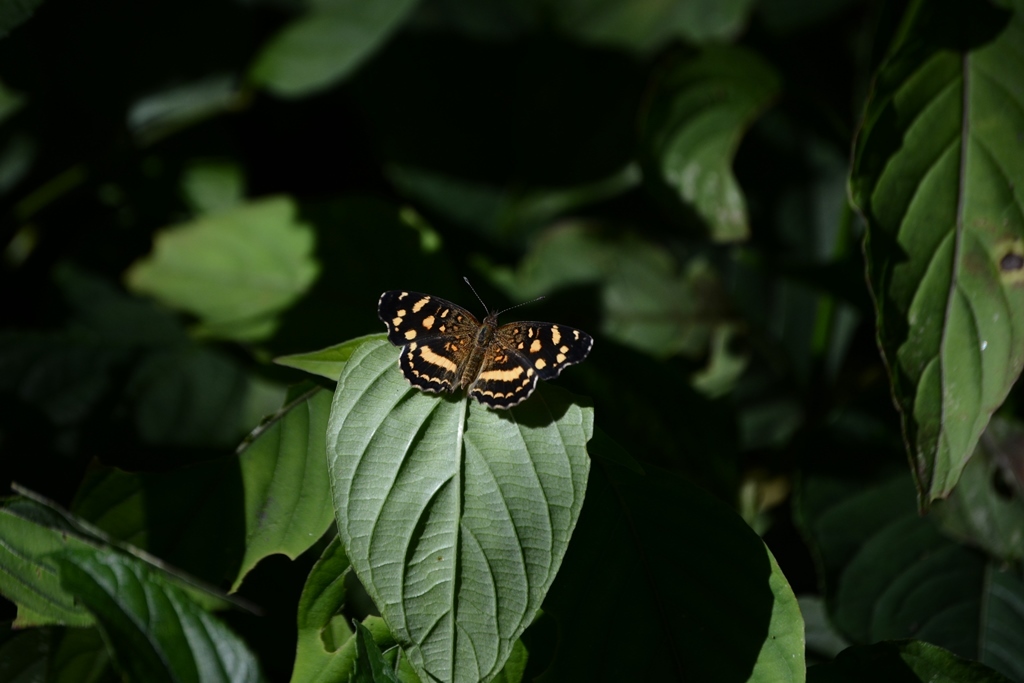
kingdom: Animalia
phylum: Arthropoda
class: Insecta
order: Lepidoptera
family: Nymphalidae
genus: Anthanassa
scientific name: Anthanassa tulcis
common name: Pale-banded crescent
